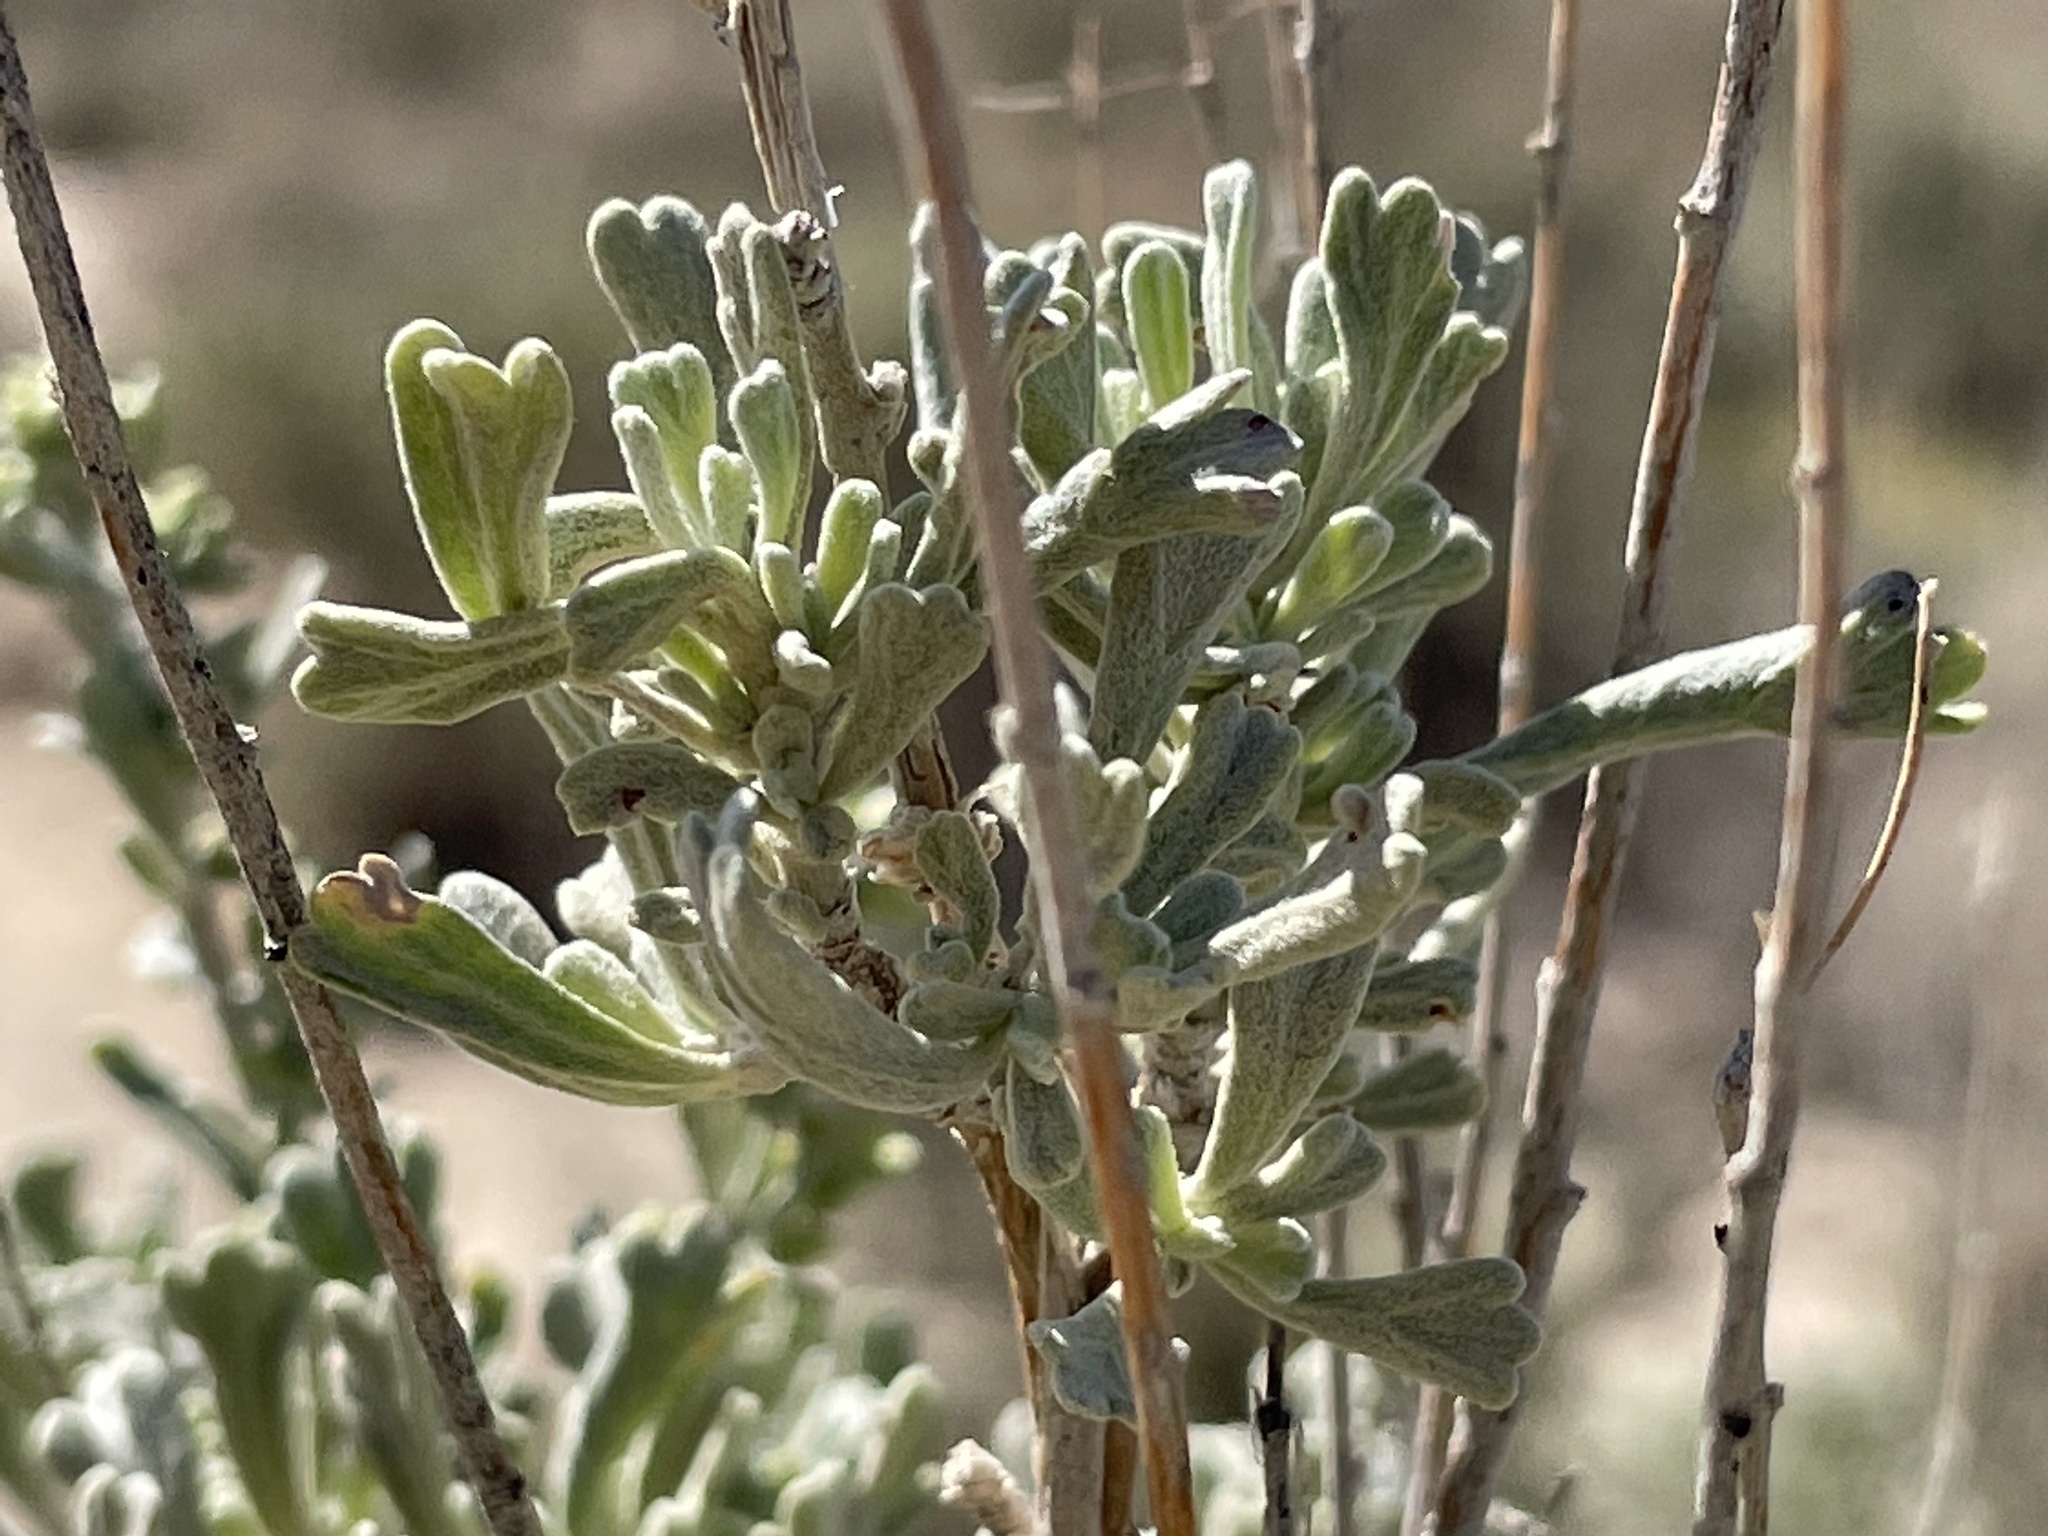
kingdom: Plantae
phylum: Tracheophyta
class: Magnoliopsida
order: Asterales
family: Asteraceae
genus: Artemisia
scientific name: Artemisia tridentata
